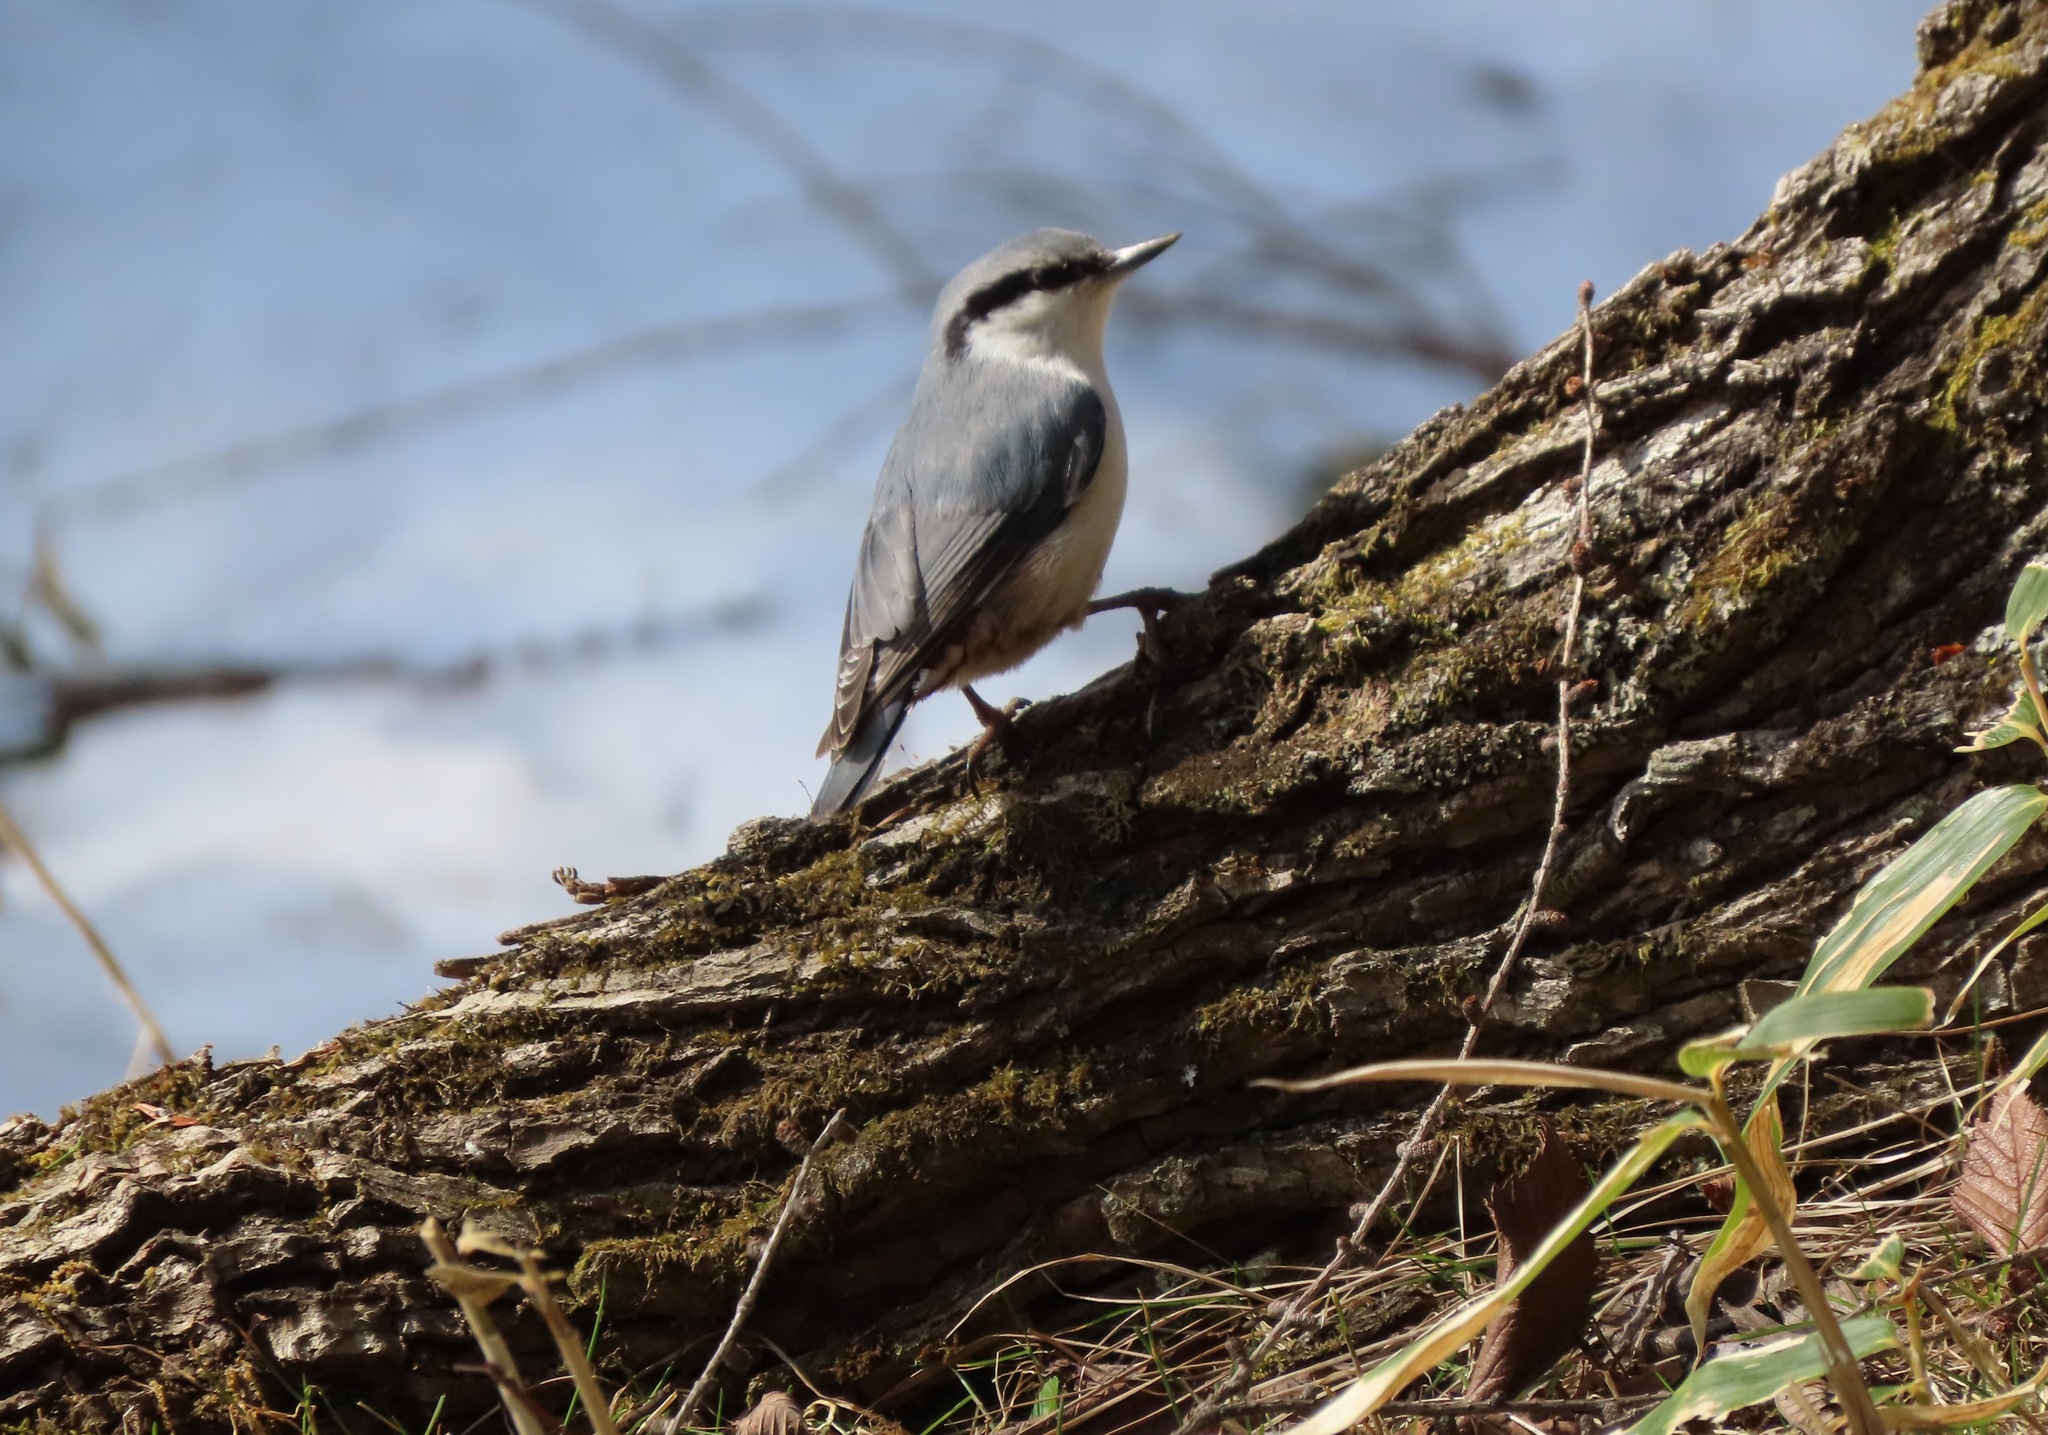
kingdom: Animalia
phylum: Chordata
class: Aves
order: Passeriformes
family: Sittidae
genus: Sitta
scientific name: Sitta europaea
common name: Eurasian nuthatch
